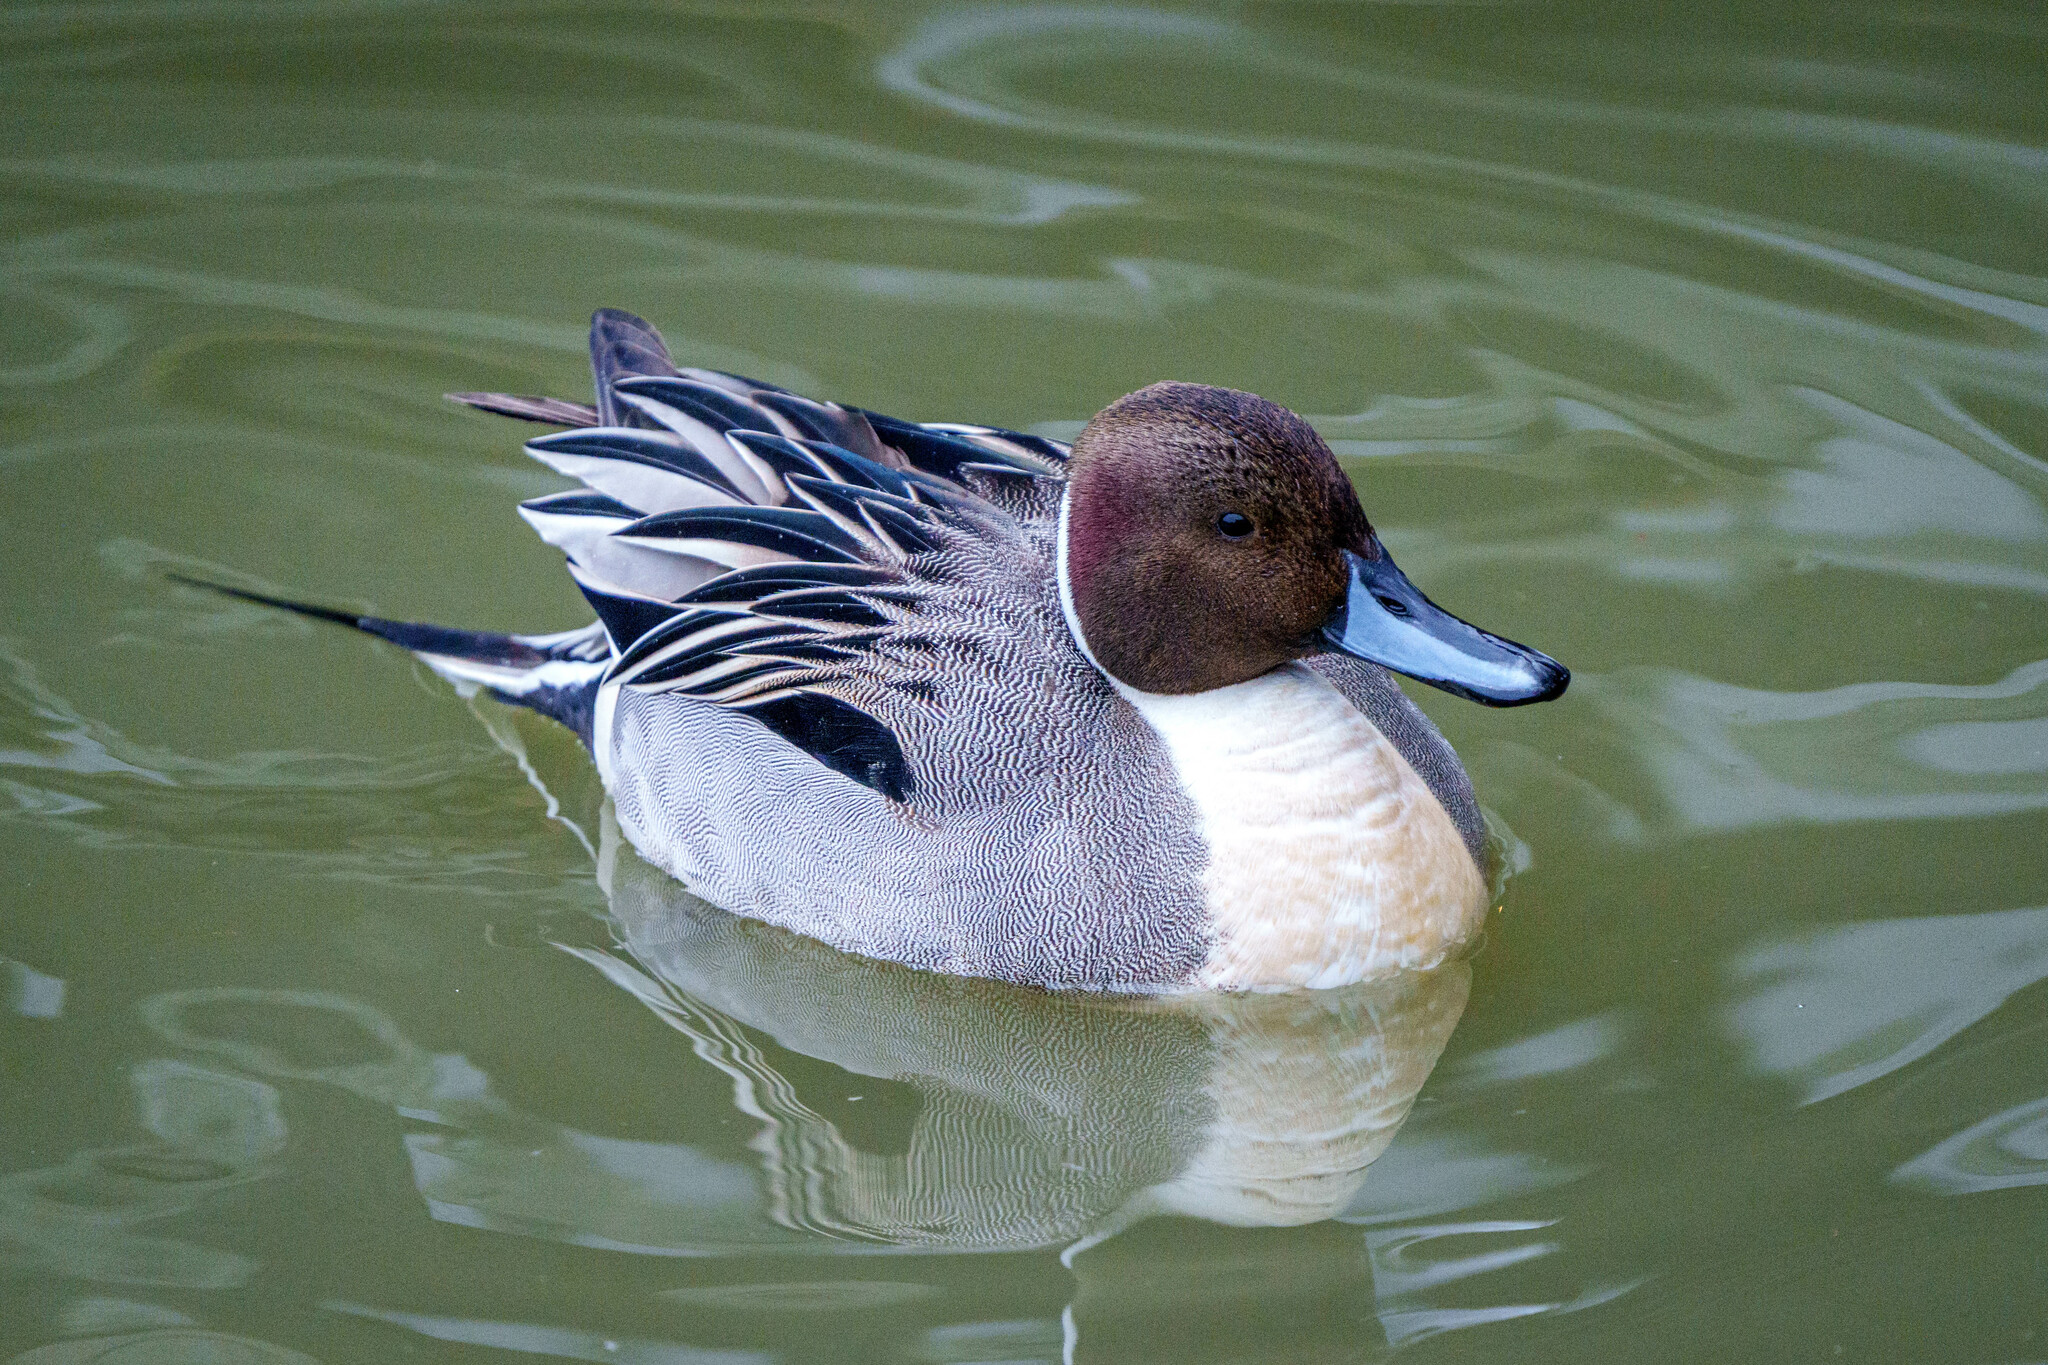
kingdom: Animalia
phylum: Chordata
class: Aves
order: Anseriformes
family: Anatidae
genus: Anas
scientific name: Anas acuta
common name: Northern pintail
